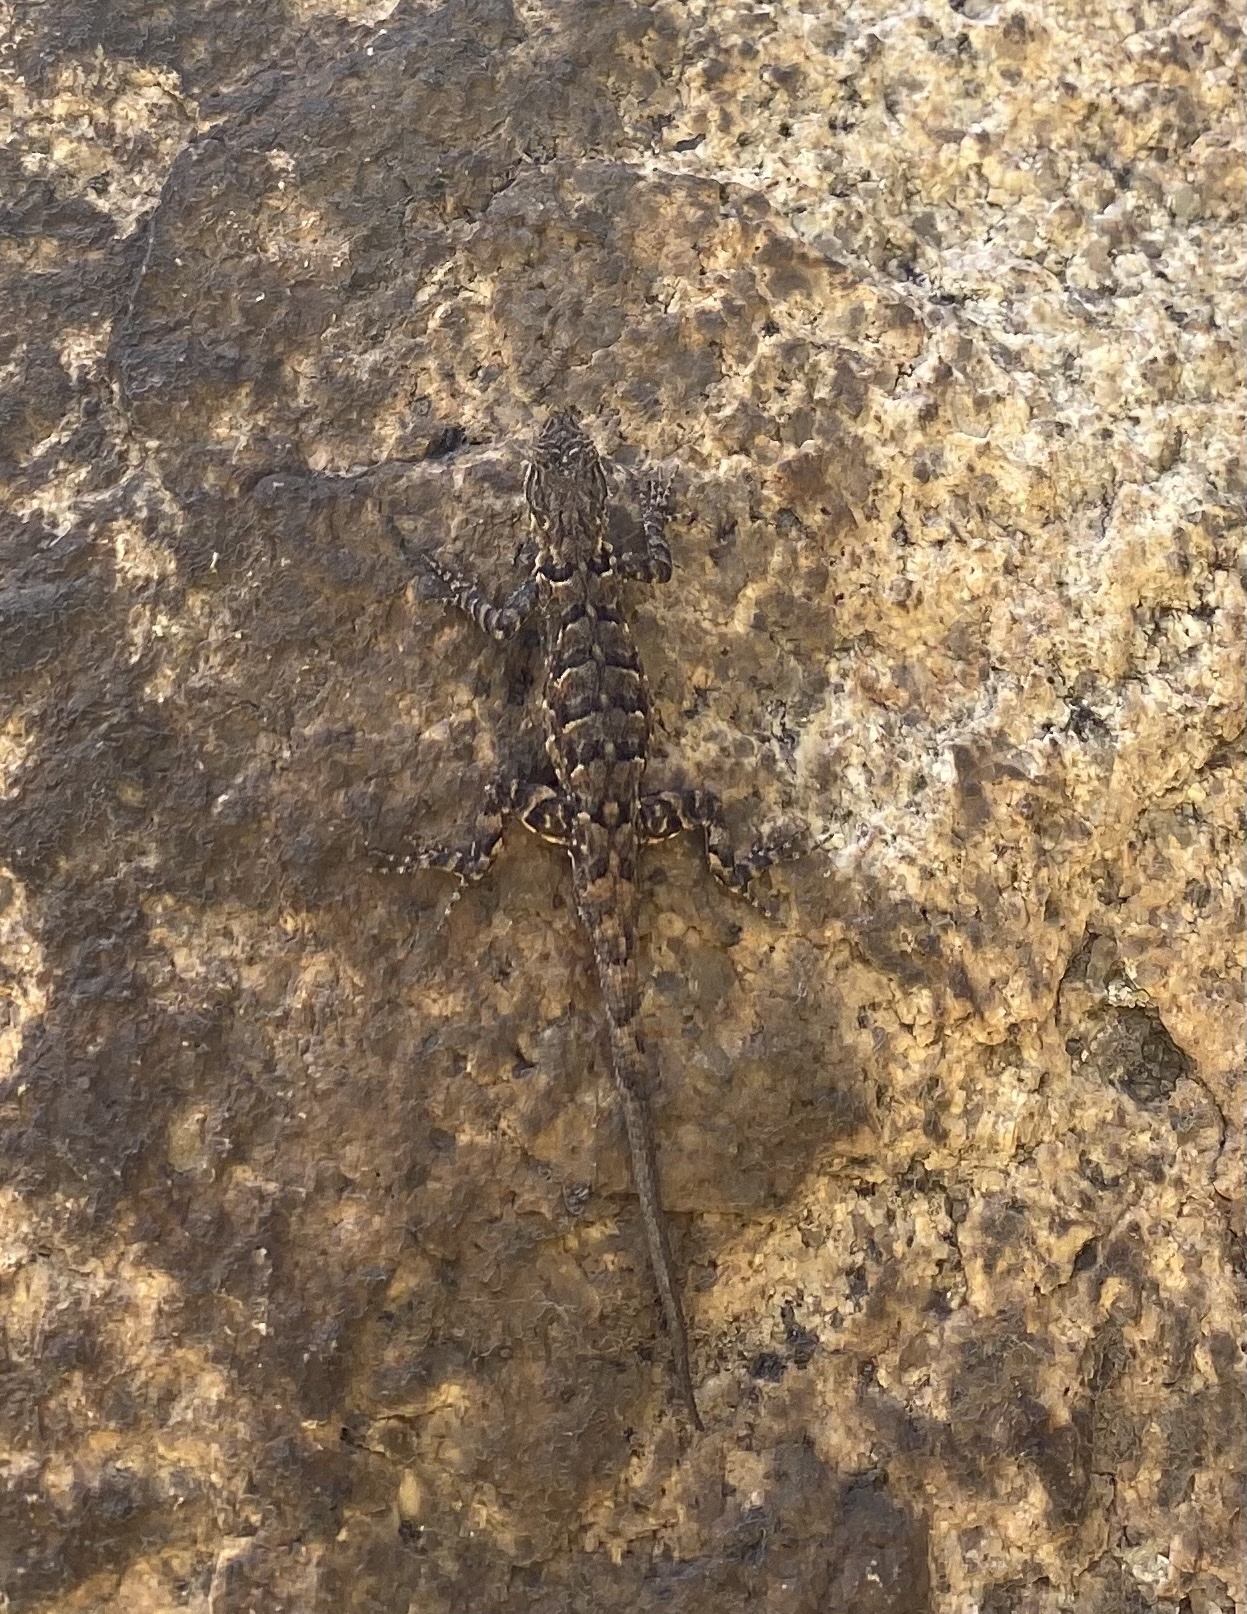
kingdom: Animalia
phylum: Chordata
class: Squamata
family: Phrynosomatidae
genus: Urosaurus
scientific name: Urosaurus ornatus
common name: Ornate tree lizard
